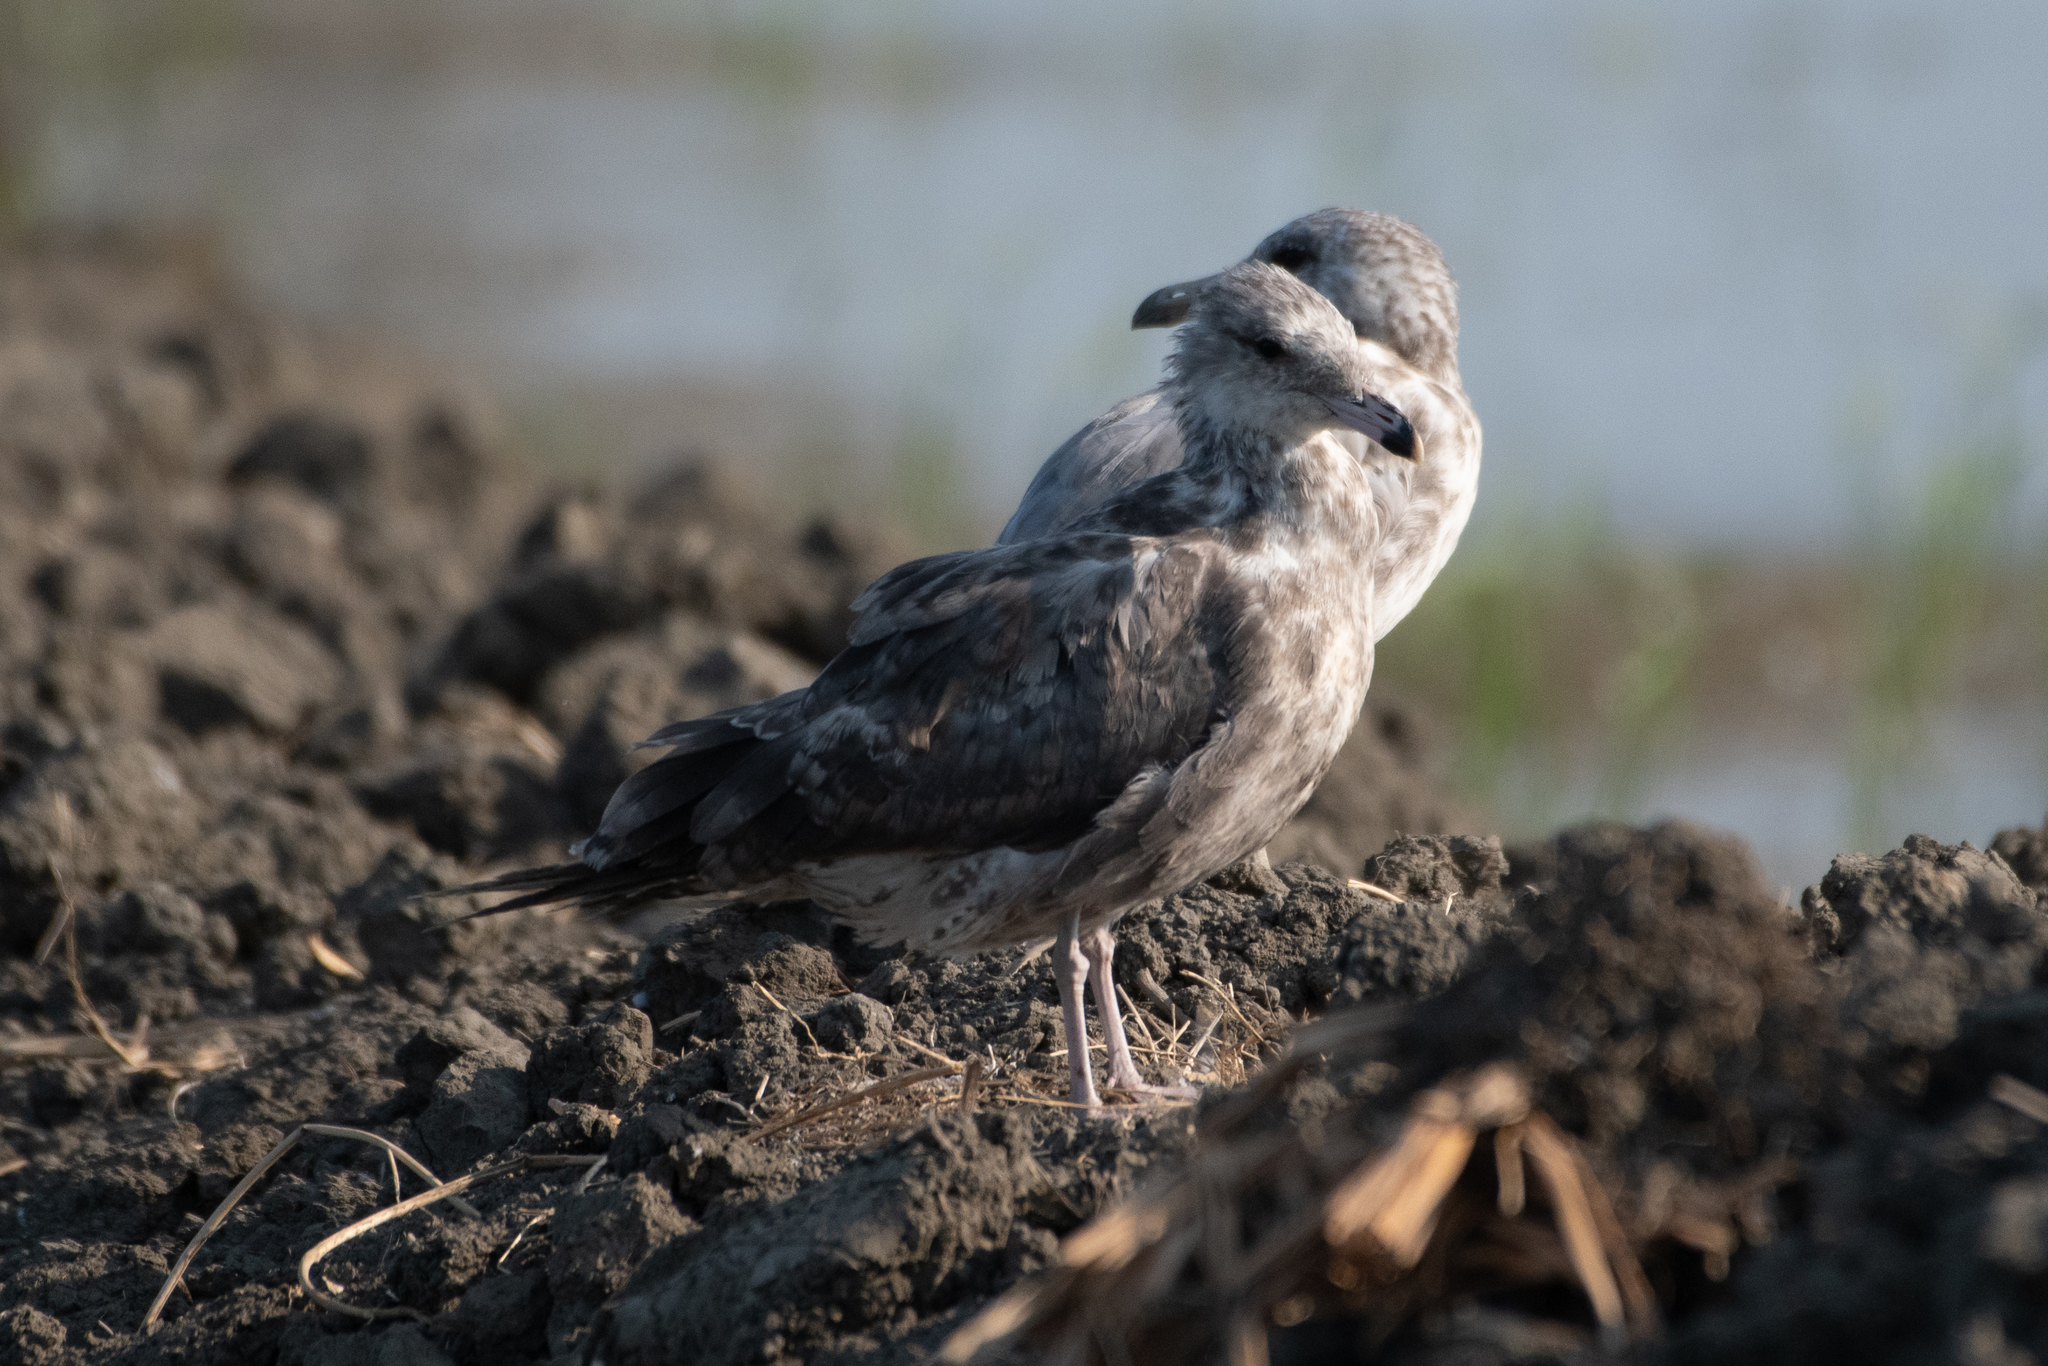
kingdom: Animalia
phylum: Chordata
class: Aves
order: Charadriiformes
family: Laridae
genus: Larus
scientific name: Larus californicus
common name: California gull
